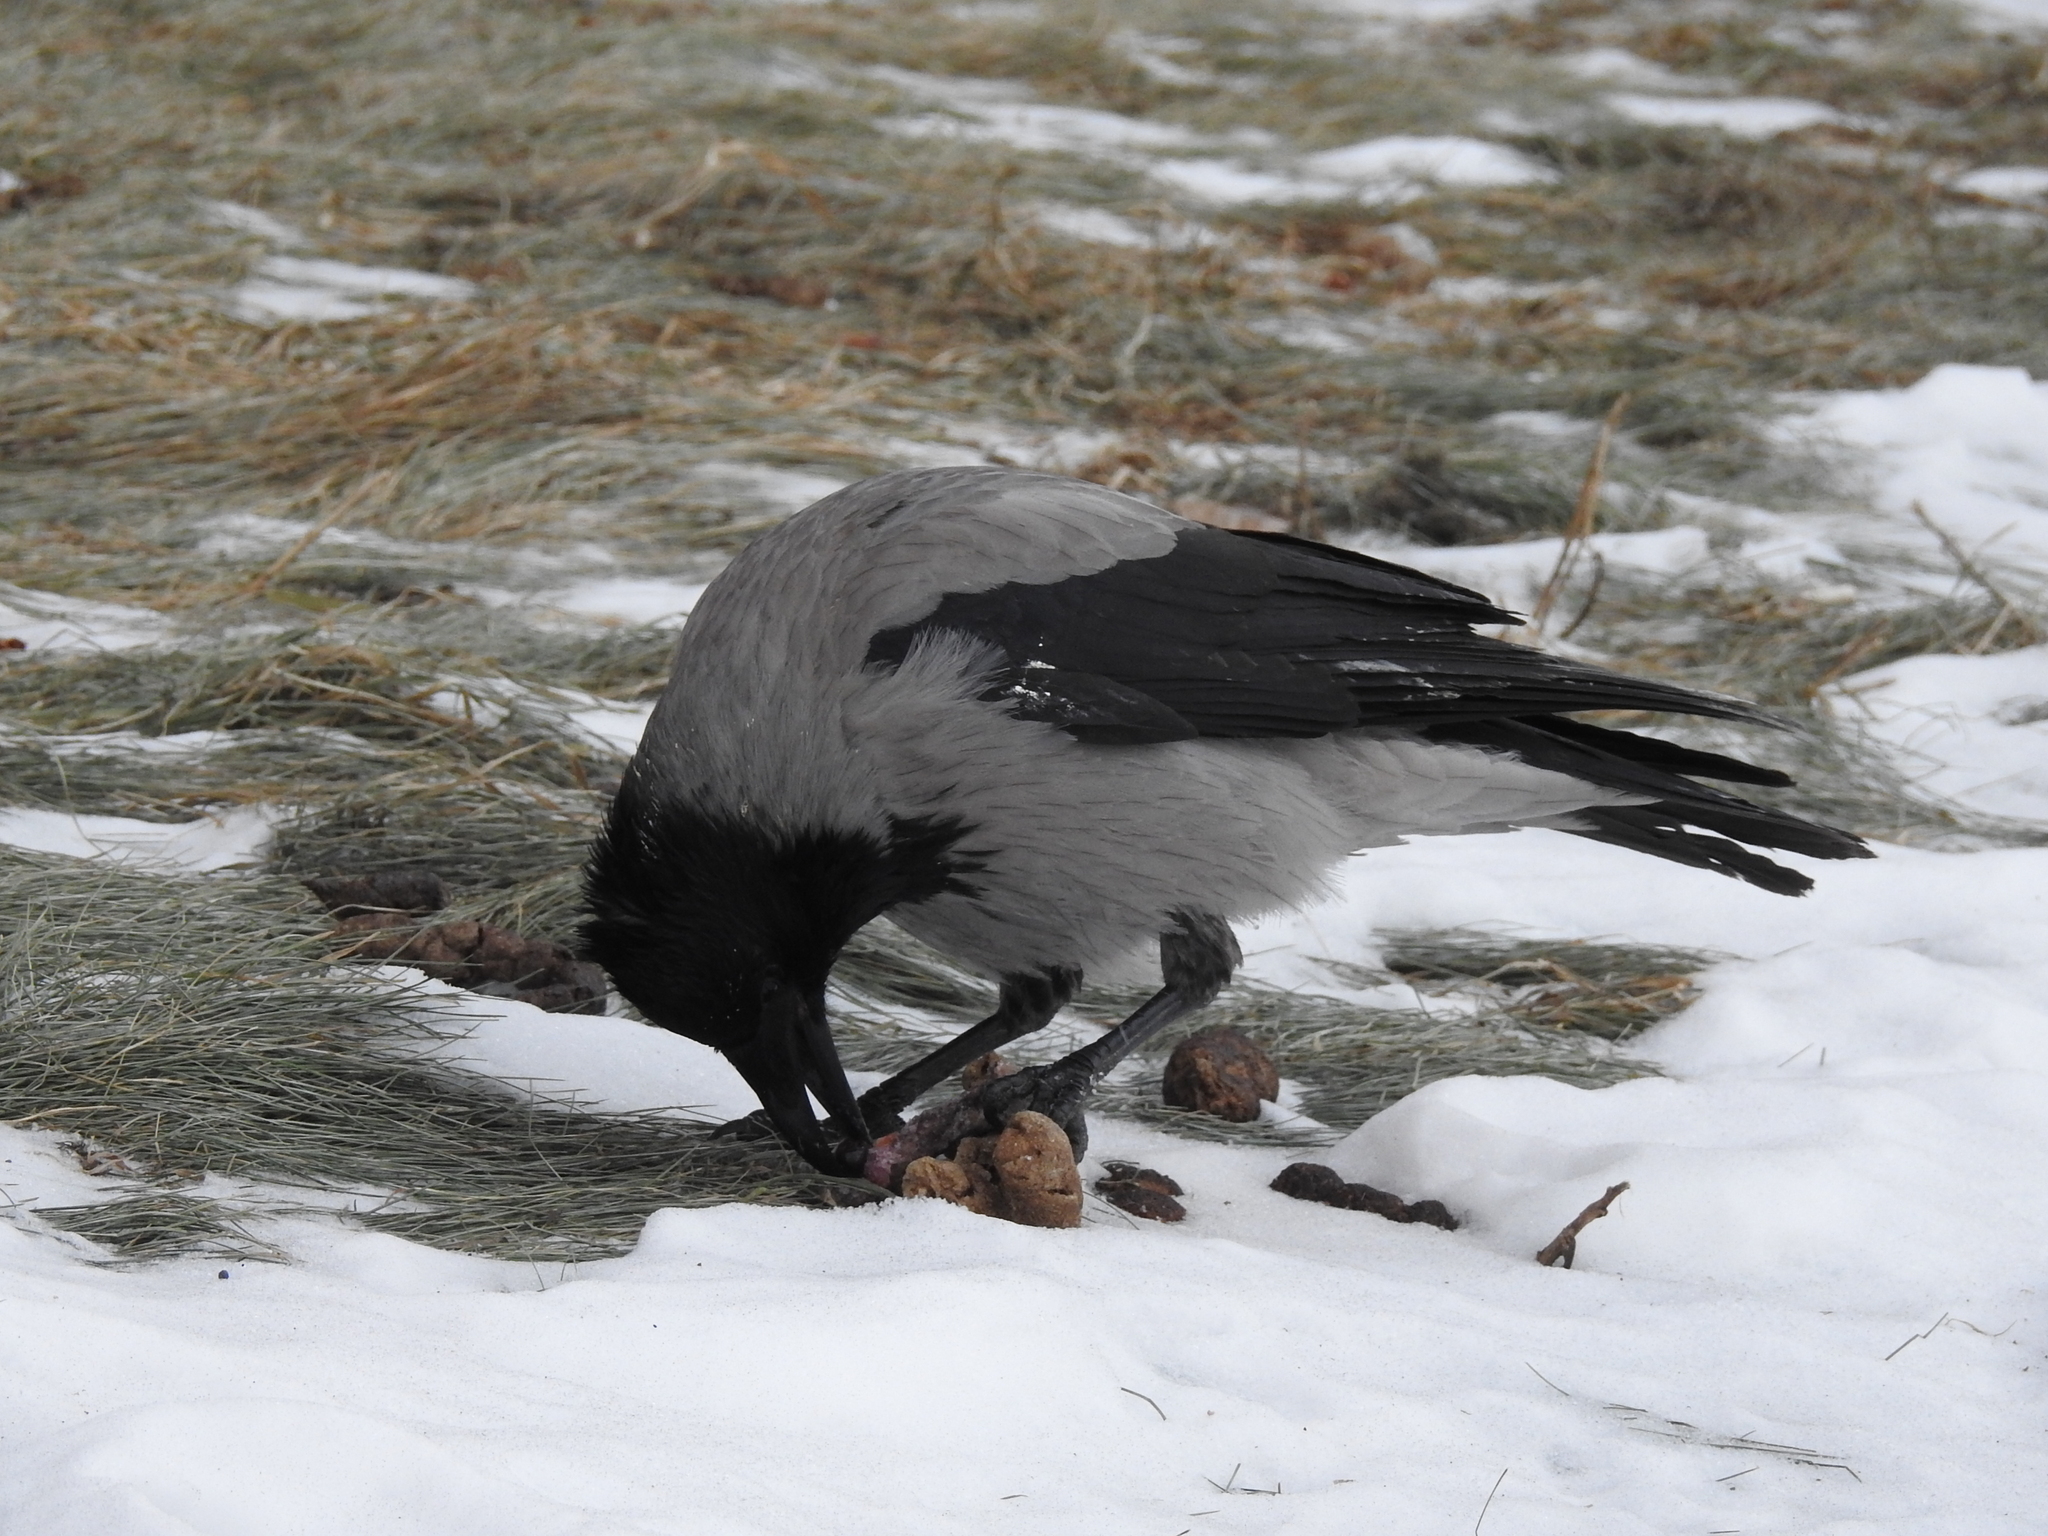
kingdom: Animalia
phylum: Chordata
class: Aves
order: Passeriformes
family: Corvidae
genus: Corvus
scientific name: Corvus cornix
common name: Hooded crow
